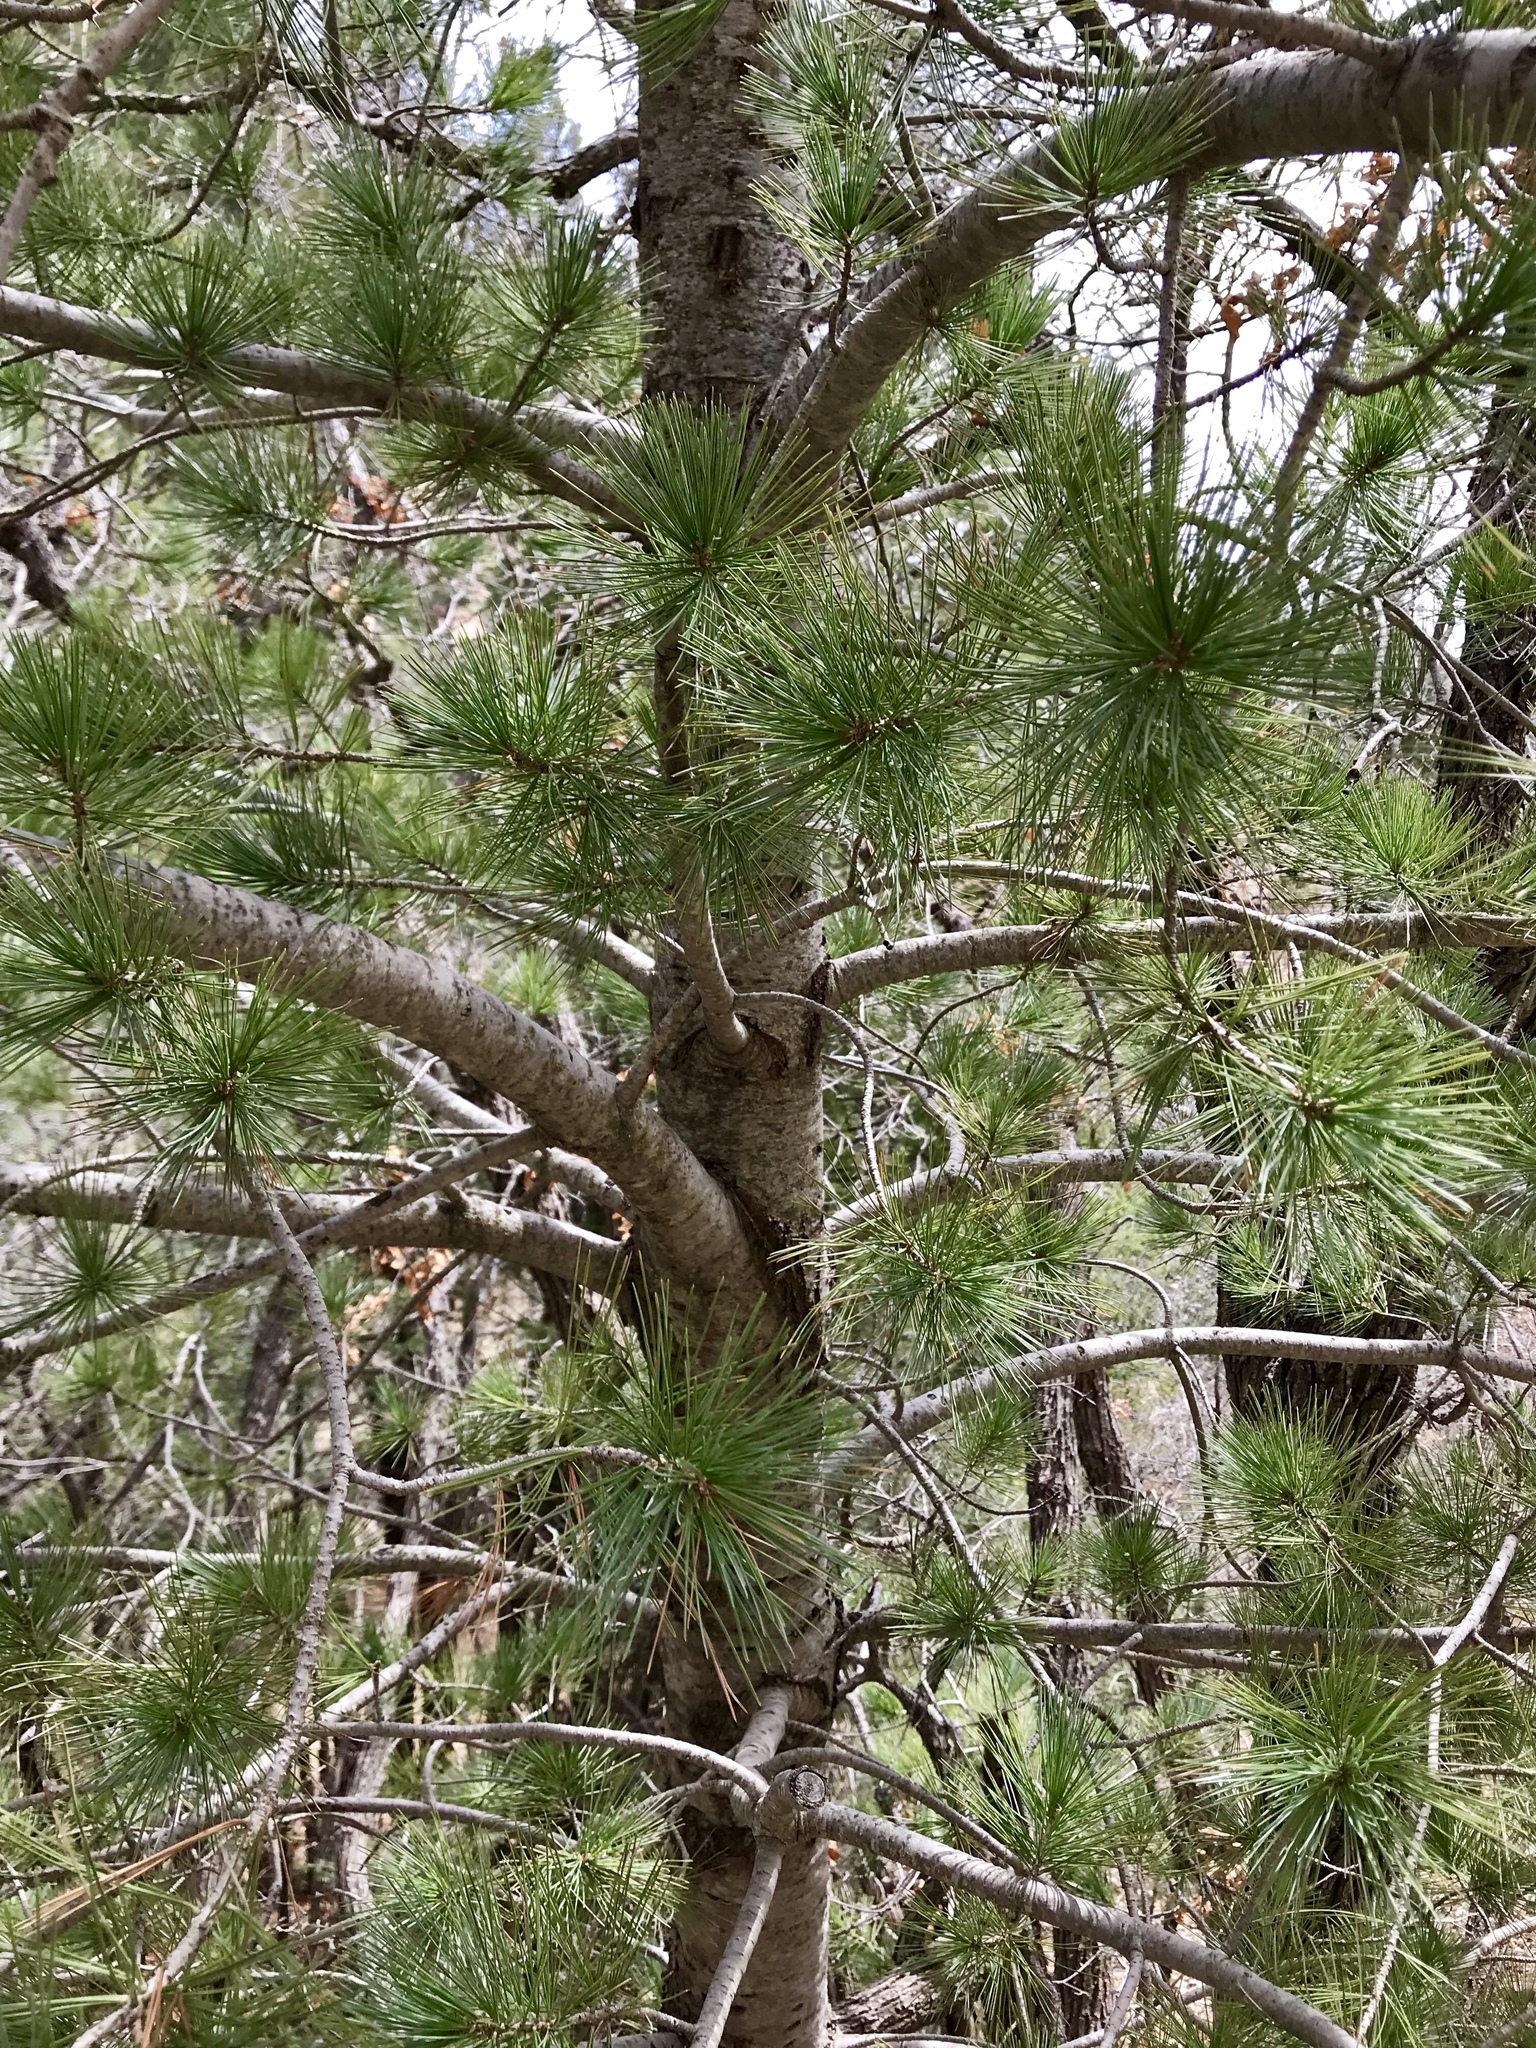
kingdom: Plantae
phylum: Tracheophyta
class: Pinopsida
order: Pinales
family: Pinaceae
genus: Pinus
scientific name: Pinus strobiformis
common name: Southwestern white pine
